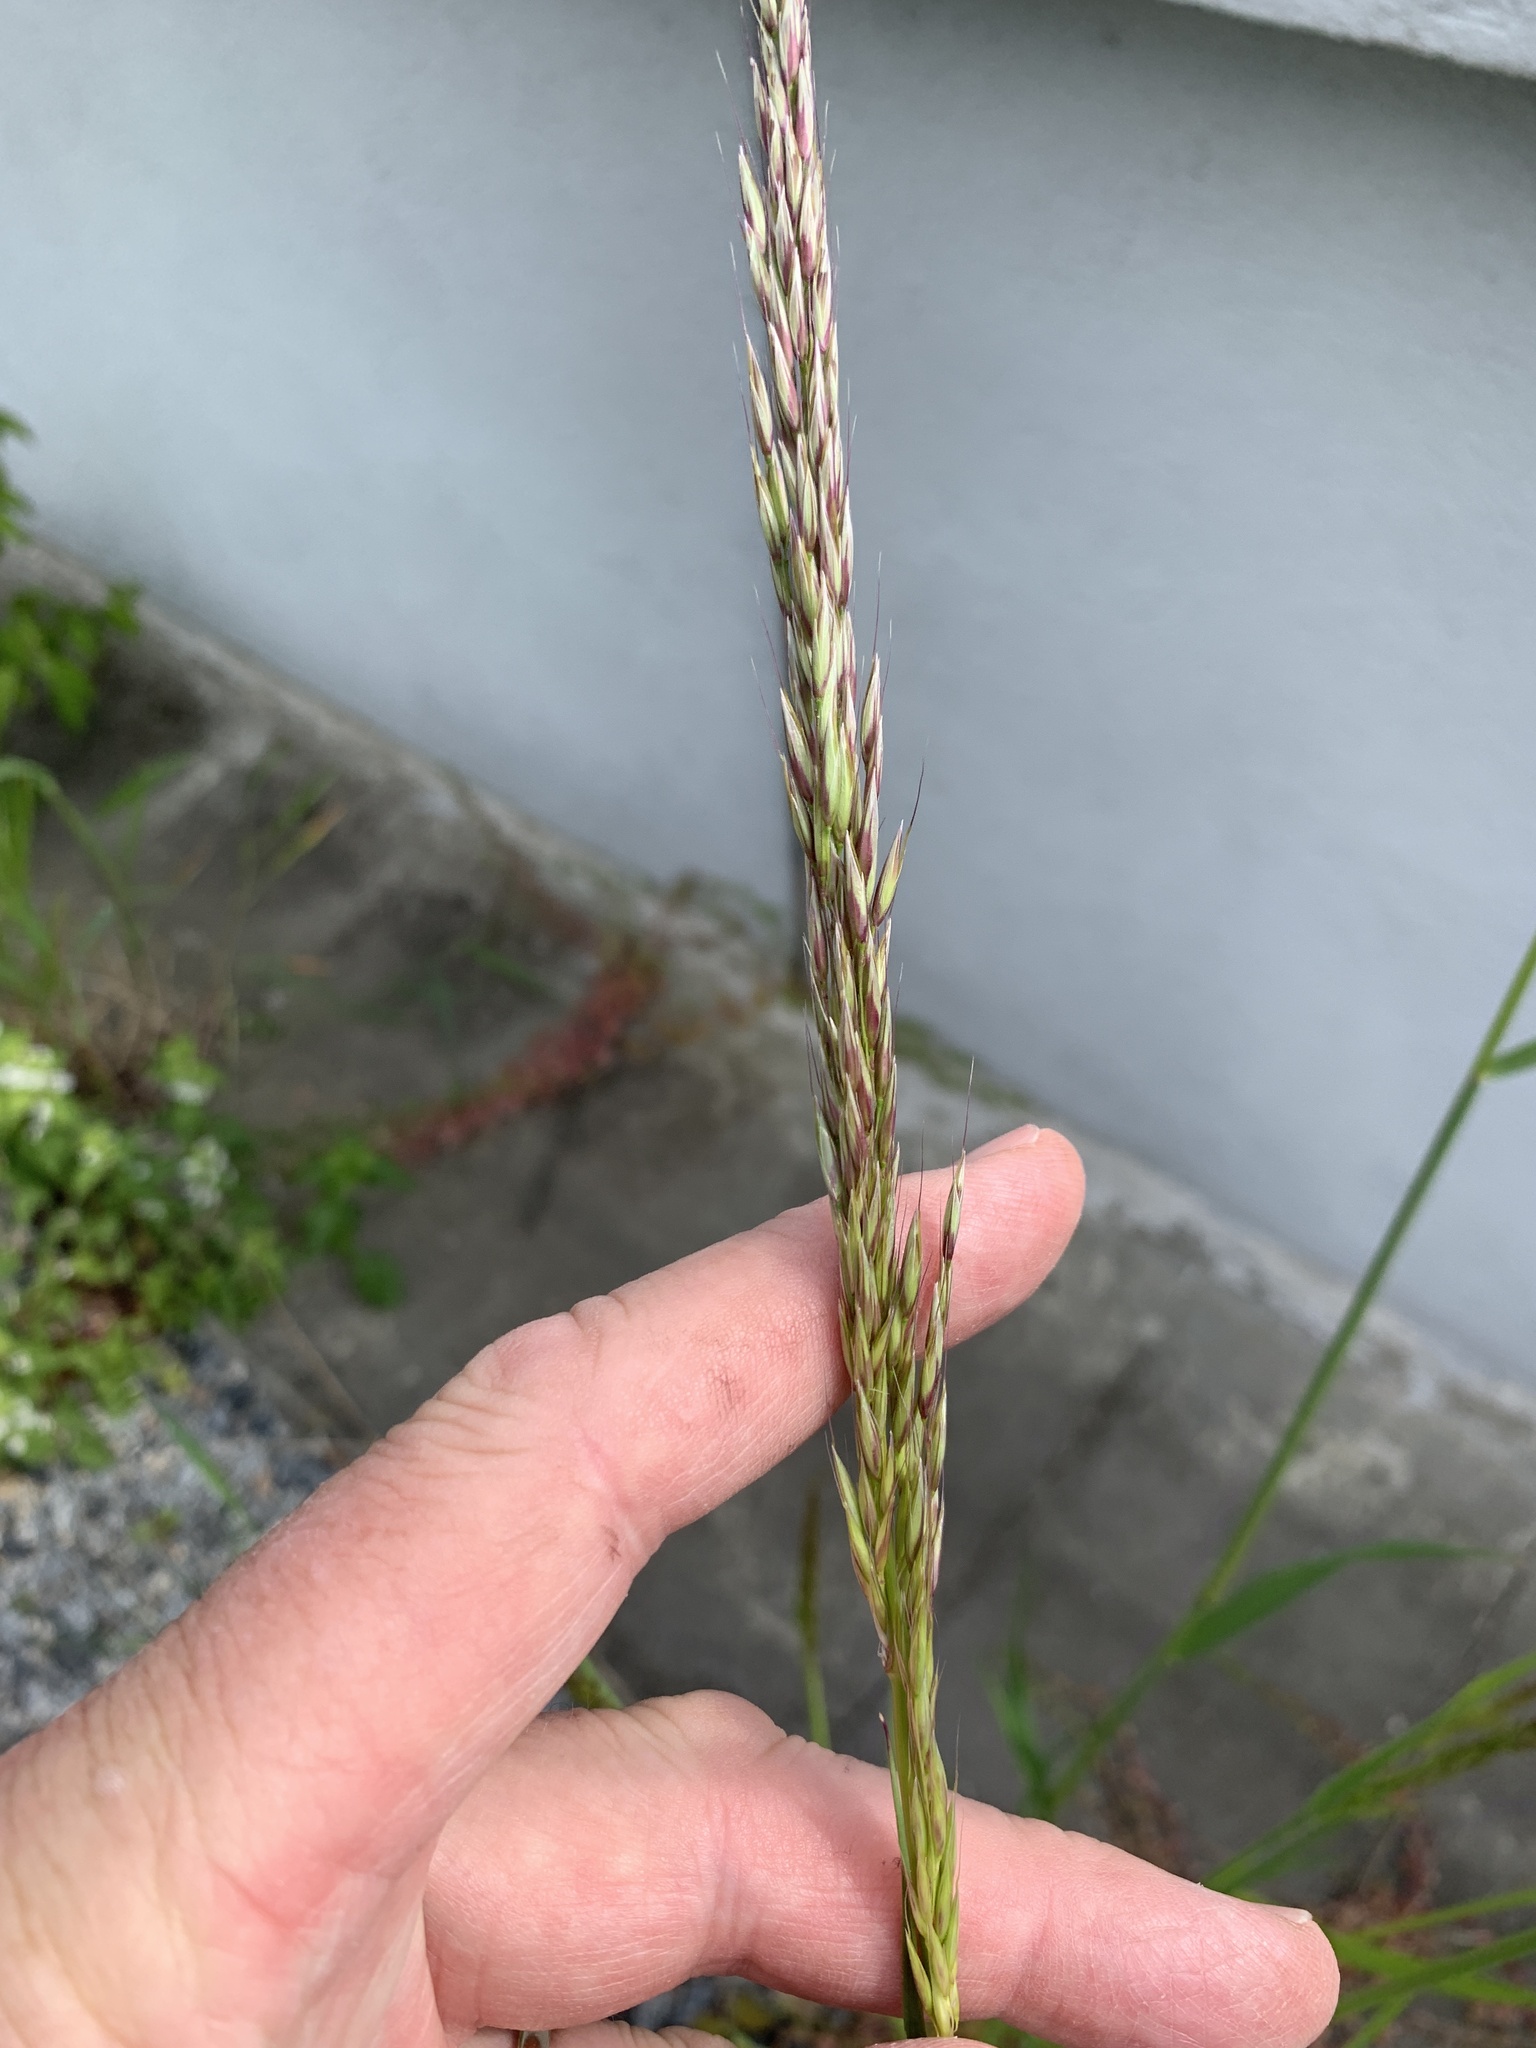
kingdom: Plantae
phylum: Tracheophyta
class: Liliopsida
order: Poales
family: Poaceae
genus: Arrhenatherum
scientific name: Arrhenatherum elatius
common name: Tall oatgrass
